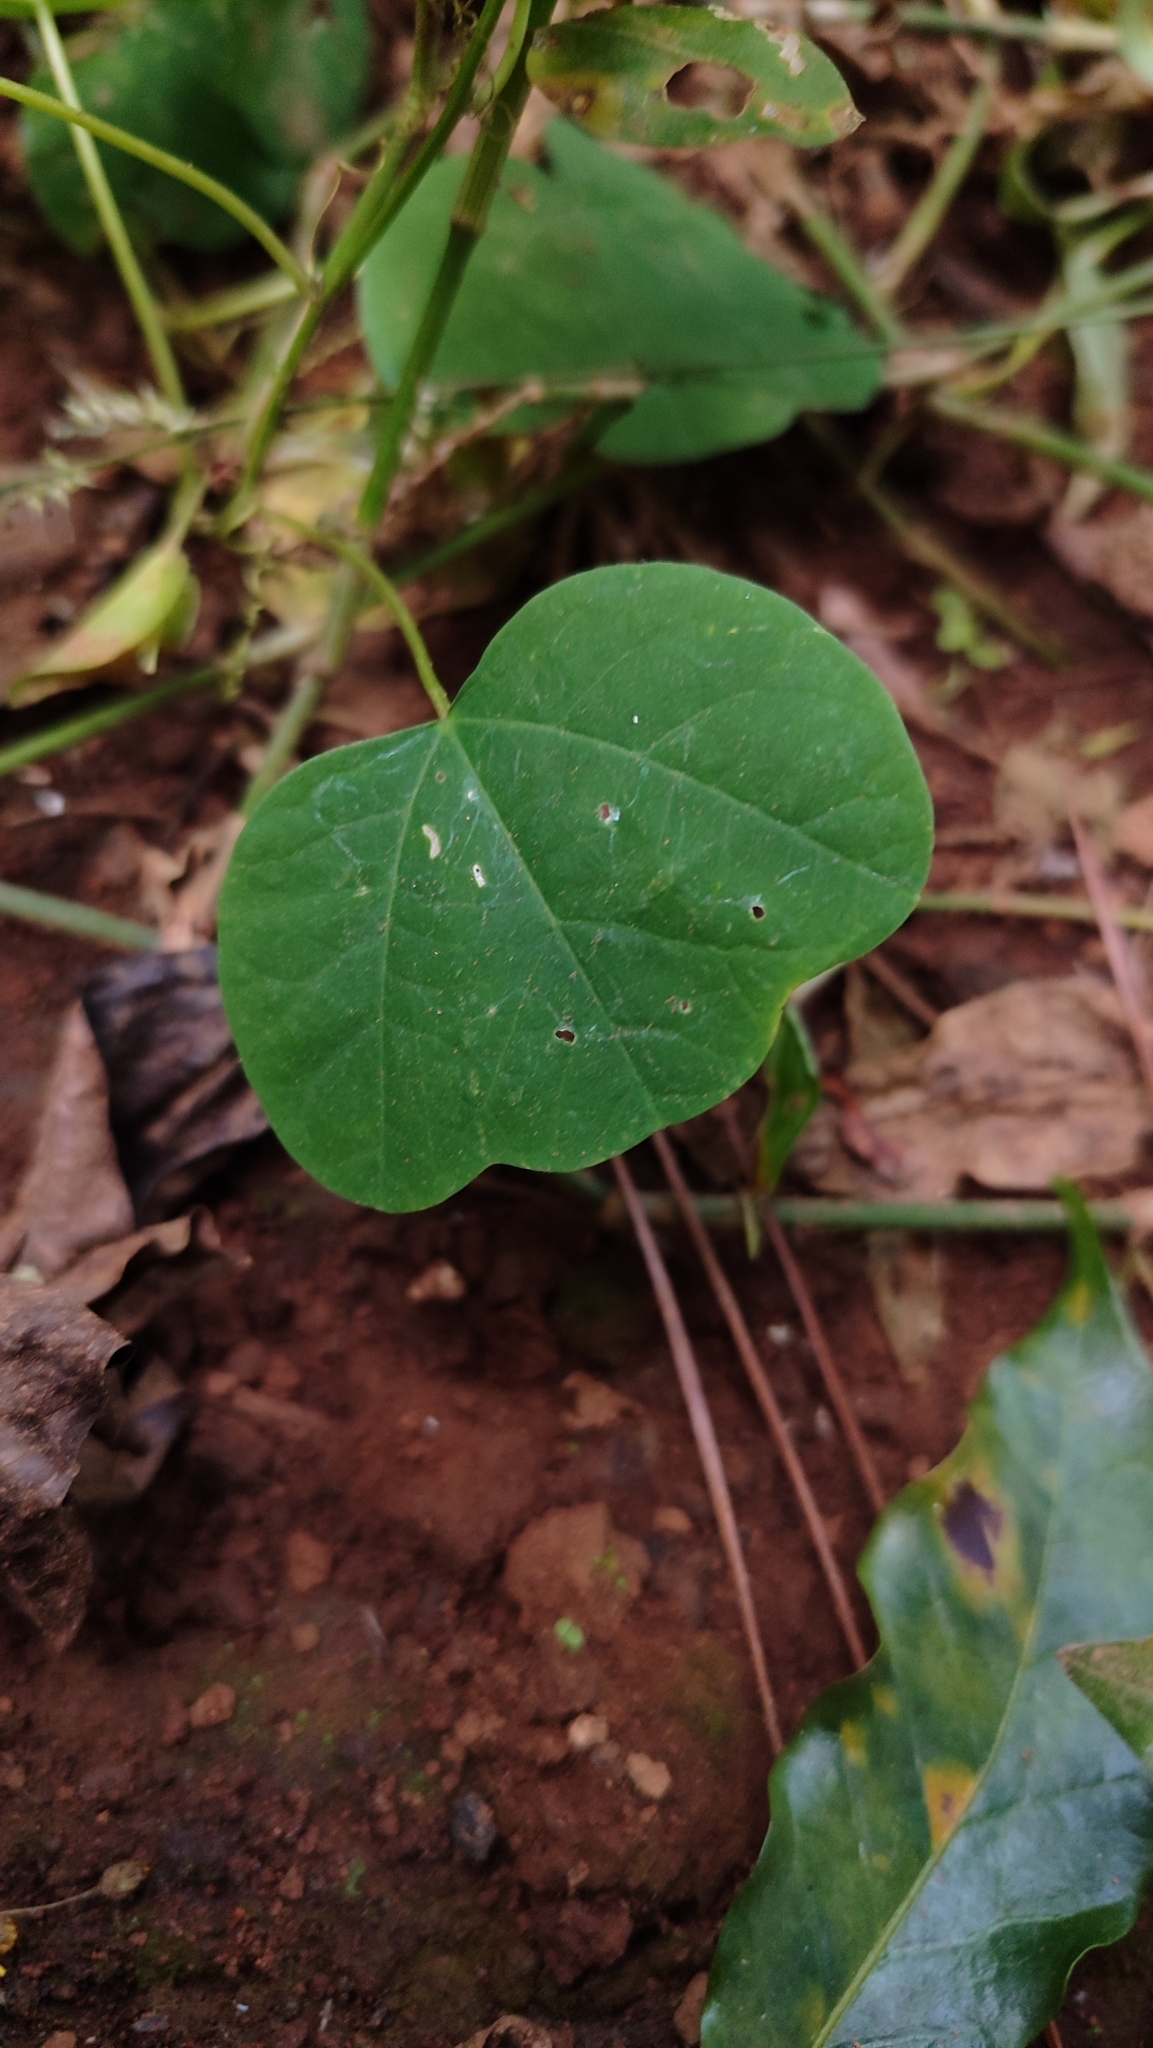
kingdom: Plantae
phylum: Tracheophyta
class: Magnoliopsida
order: Malpighiales
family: Passifloraceae
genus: Passiflora
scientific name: Passiflora filipes
